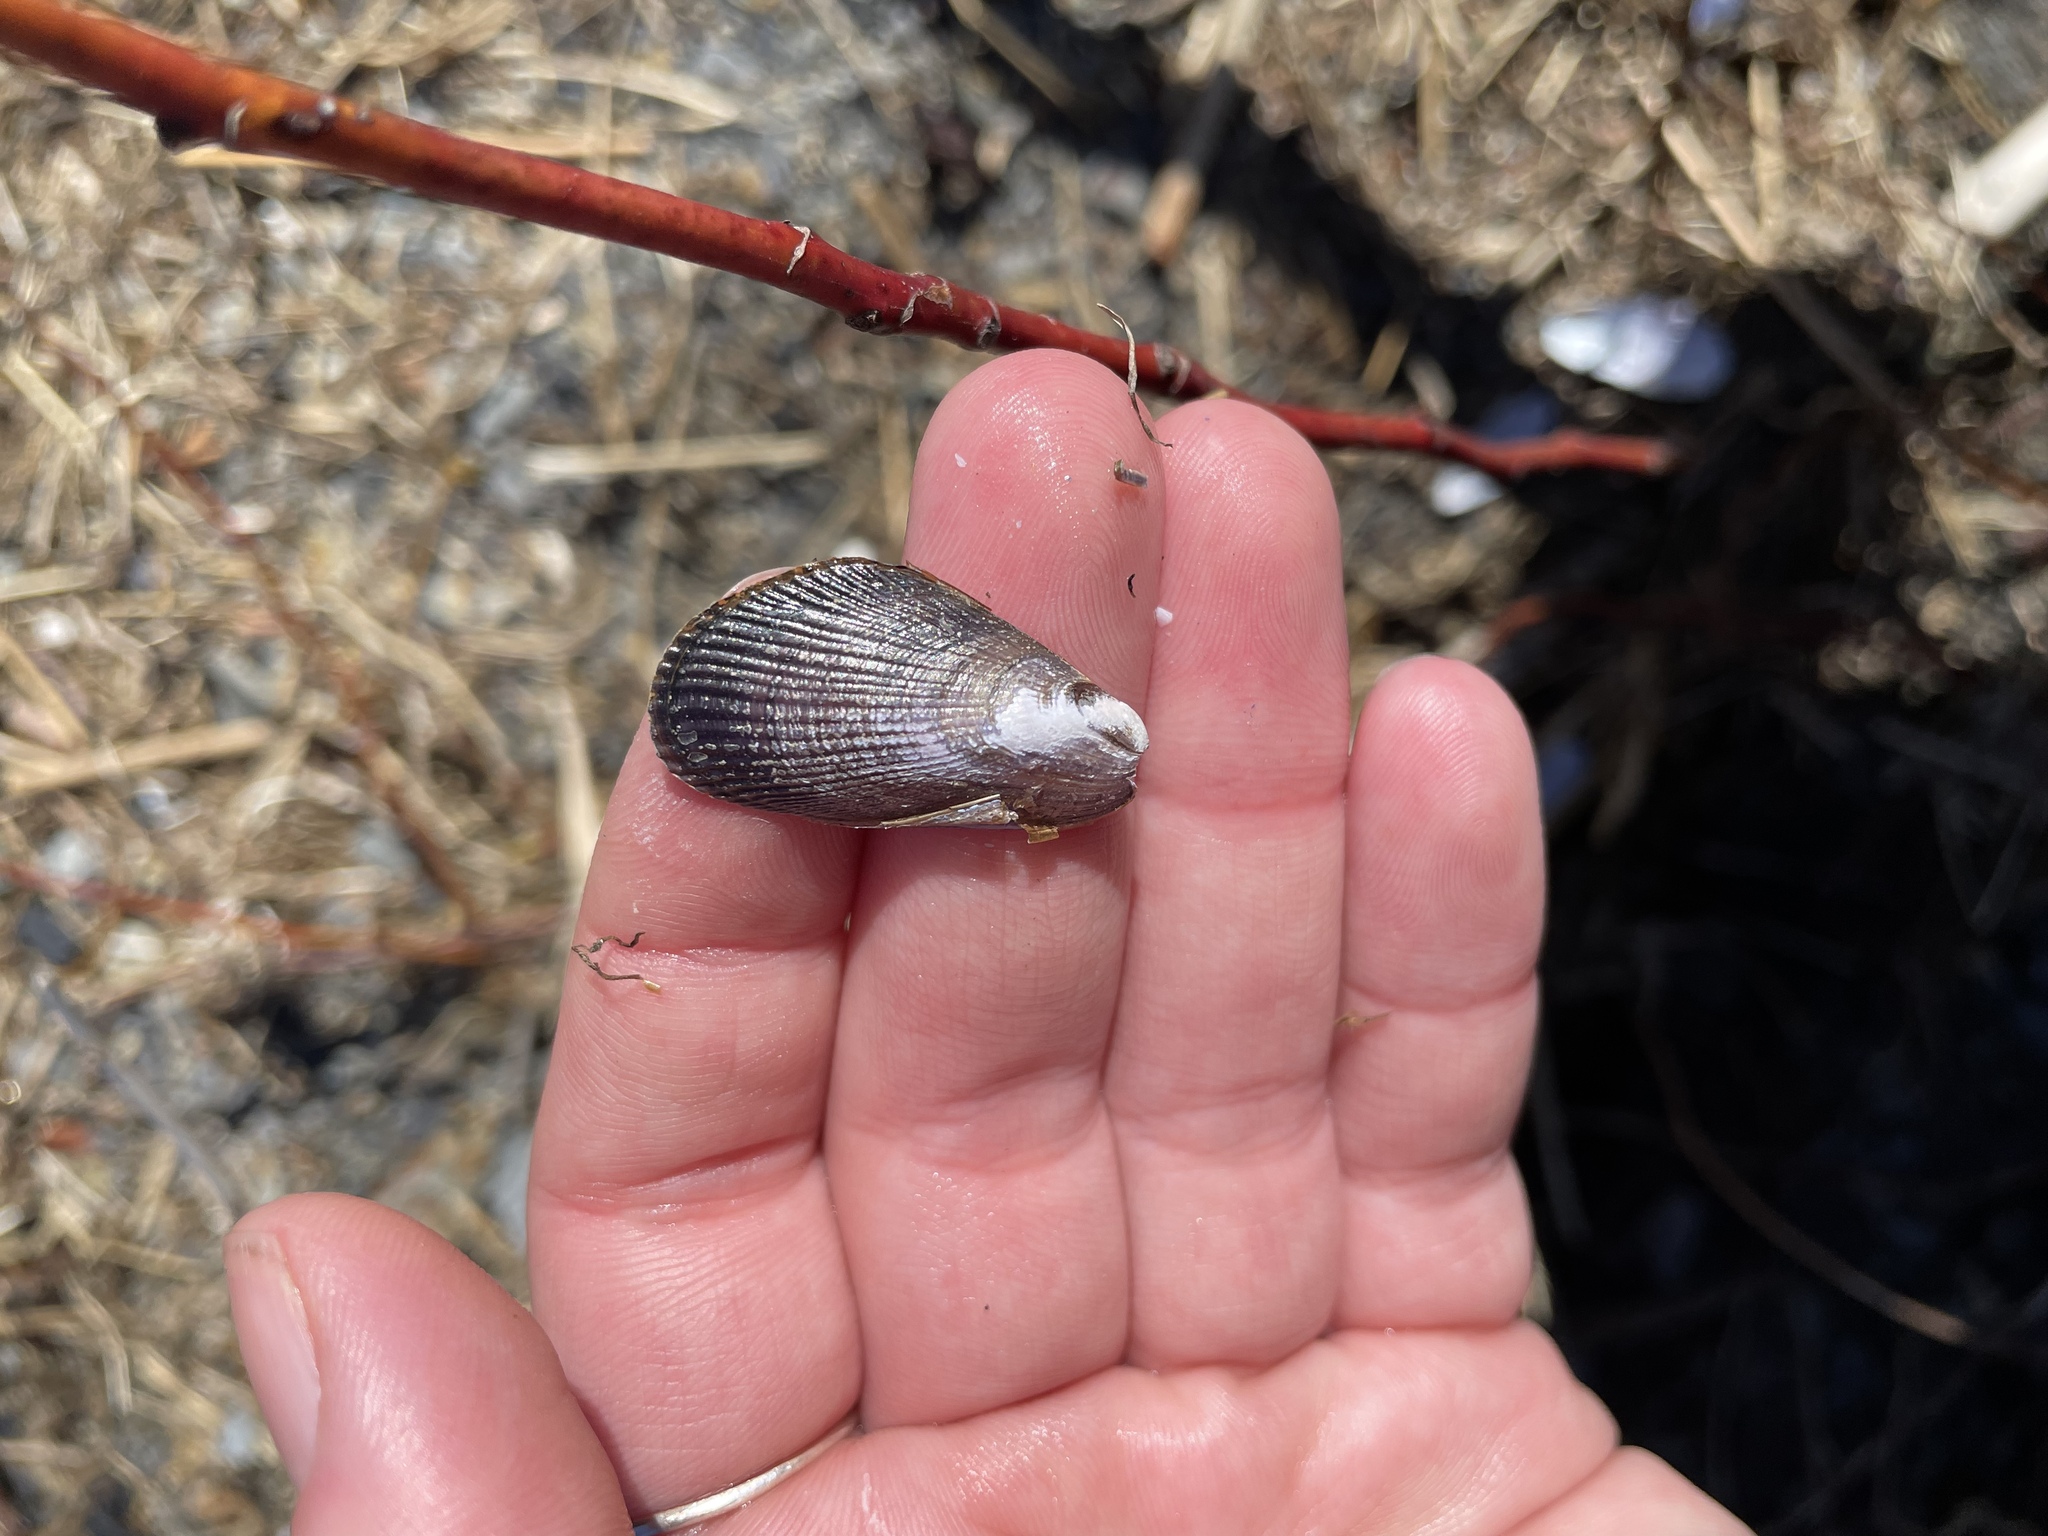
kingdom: Animalia
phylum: Mollusca
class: Bivalvia
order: Mytilida
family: Mytilidae
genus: Geukensia
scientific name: Geukensia demissa
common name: Ribbed mussel
